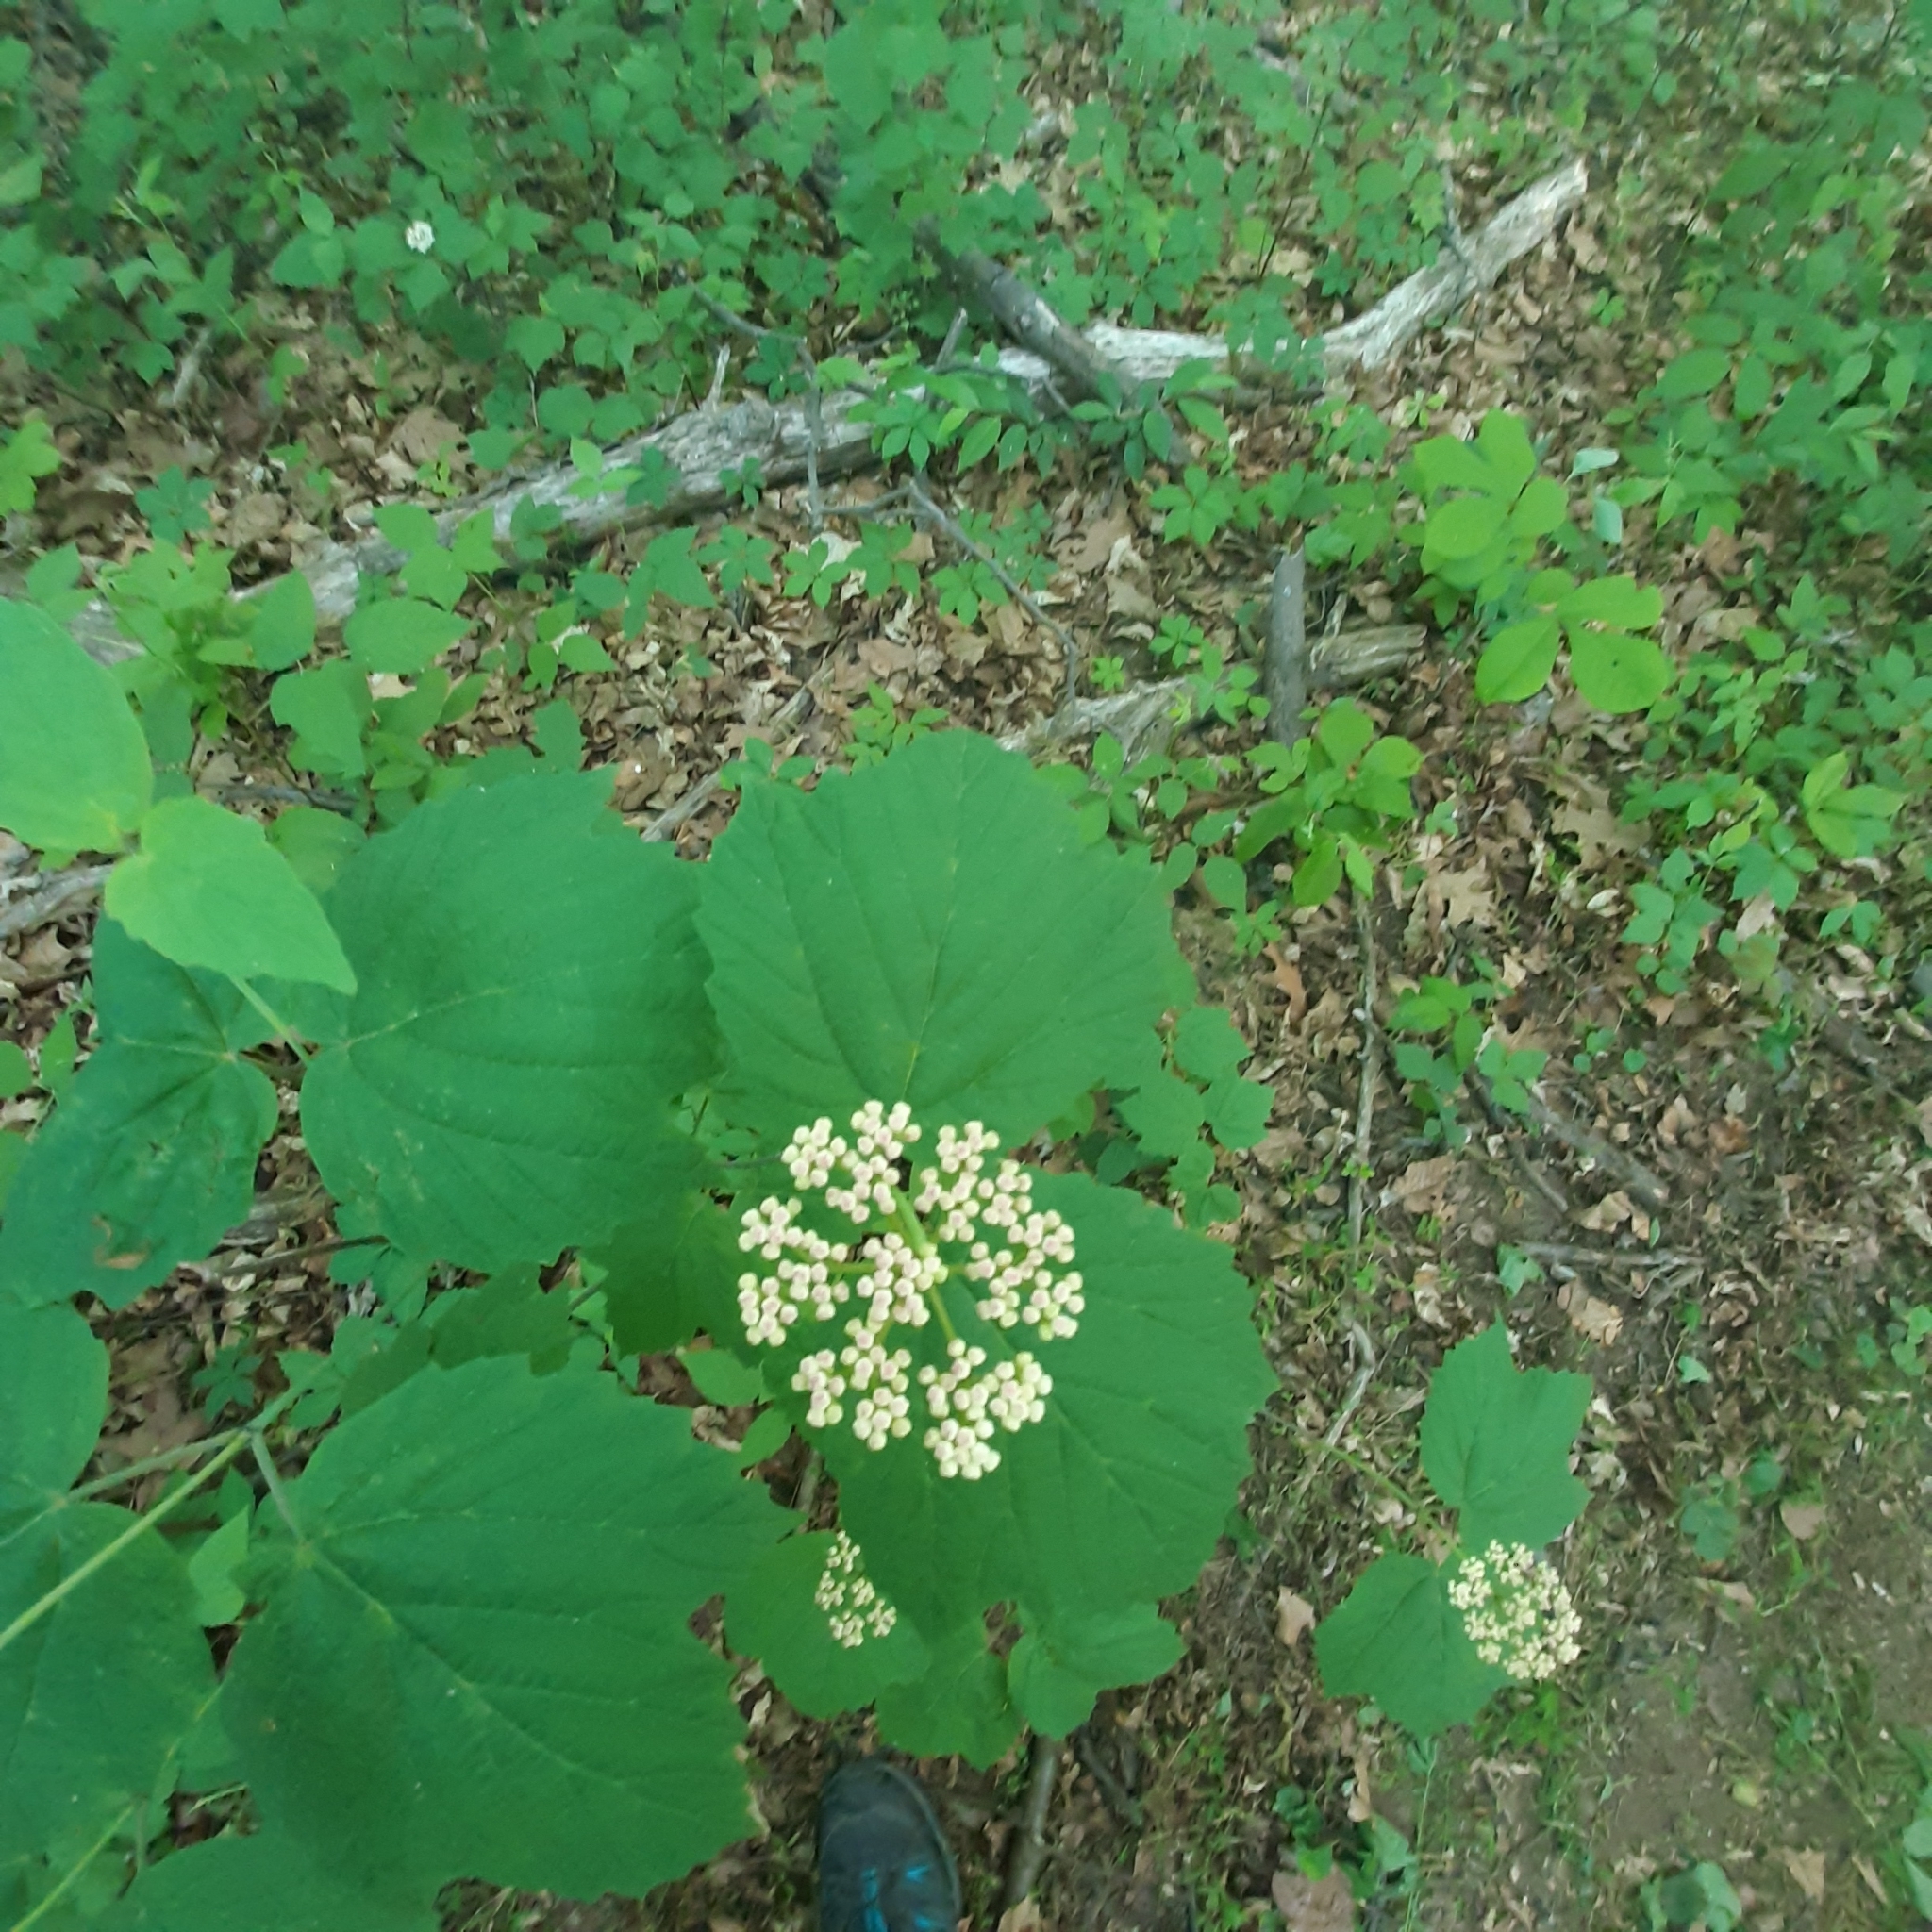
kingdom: Plantae
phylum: Tracheophyta
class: Magnoliopsida
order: Dipsacales
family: Viburnaceae
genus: Viburnum
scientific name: Viburnum acerifolium
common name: Dockmackie
